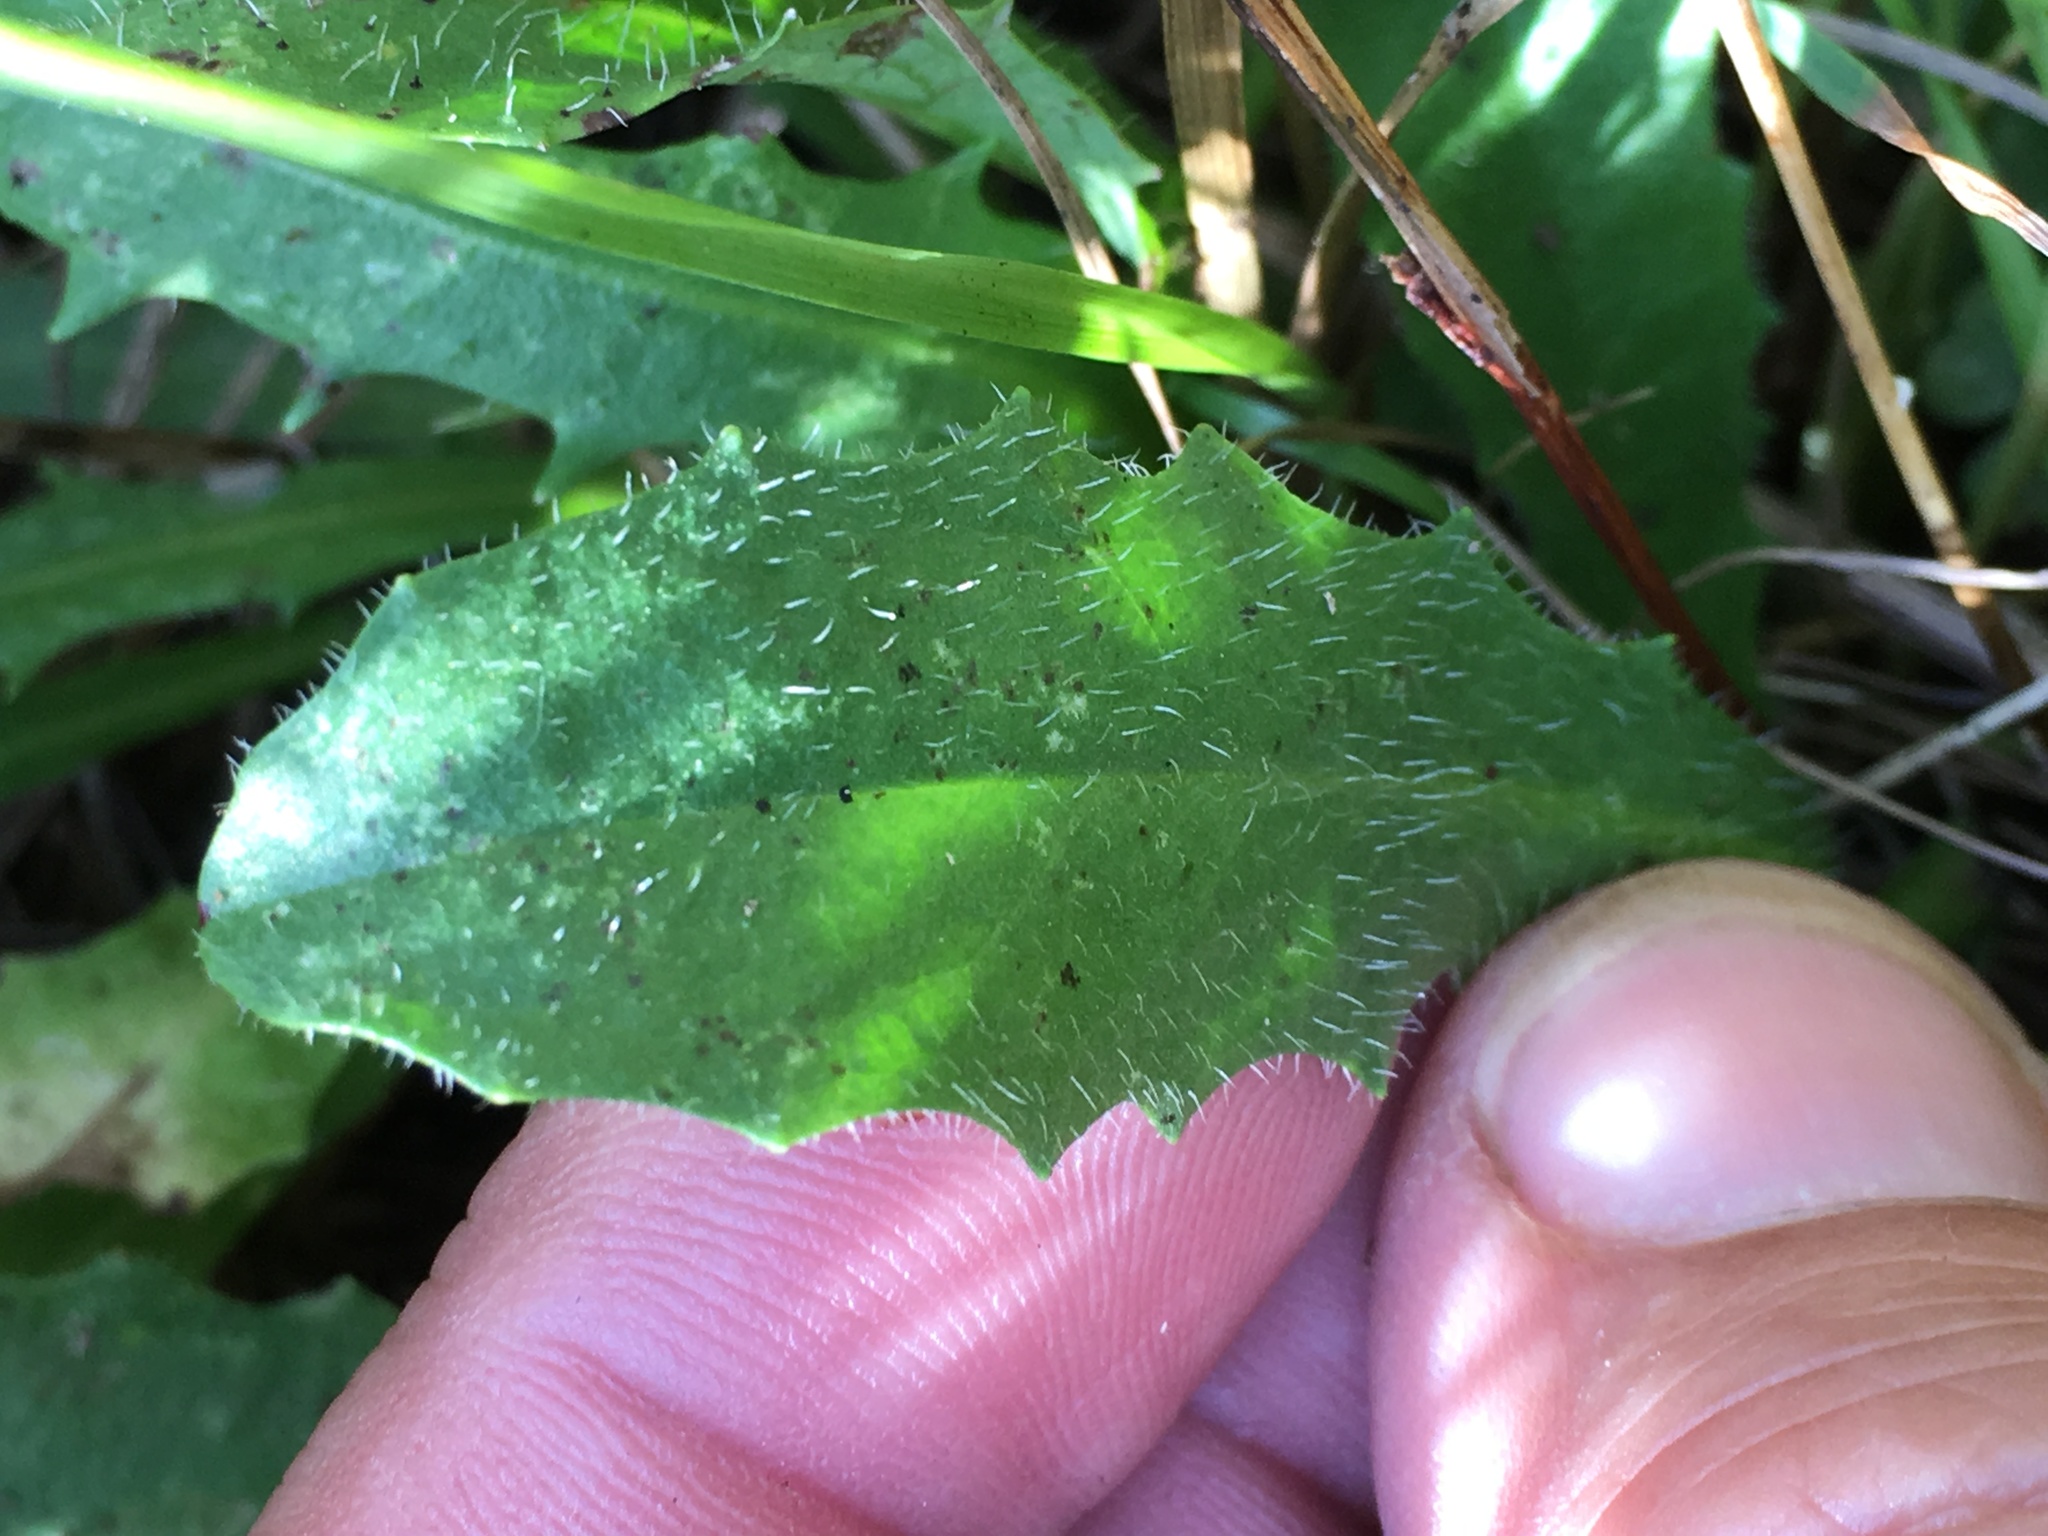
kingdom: Plantae
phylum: Tracheophyta
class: Magnoliopsida
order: Asterales
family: Asteraceae
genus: Hypochaeris
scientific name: Hypochaeris radicata
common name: Flatweed
